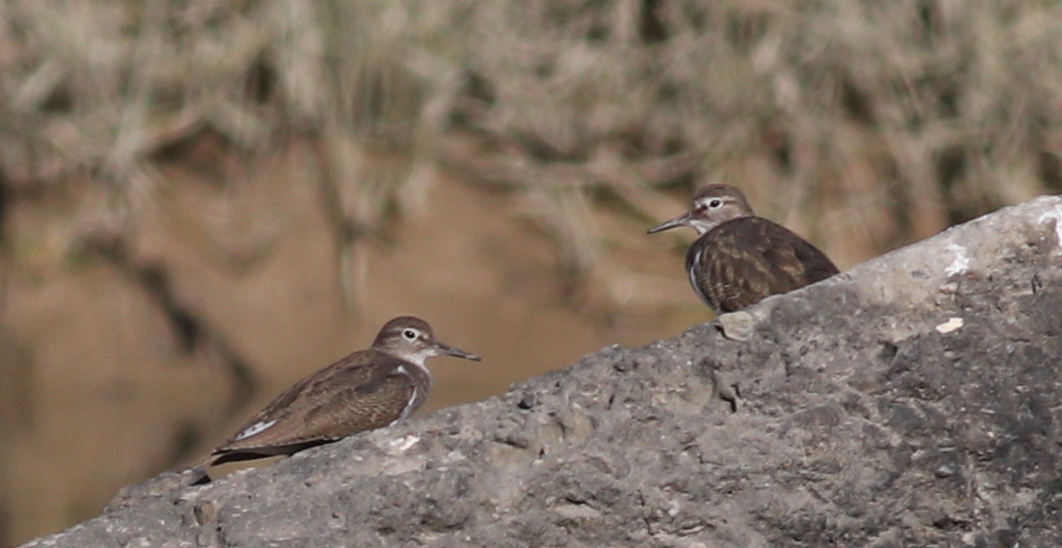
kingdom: Animalia
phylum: Chordata
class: Aves
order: Charadriiformes
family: Scolopacidae
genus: Actitis
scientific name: Actitis hypoleucos
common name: Common sandpiper
